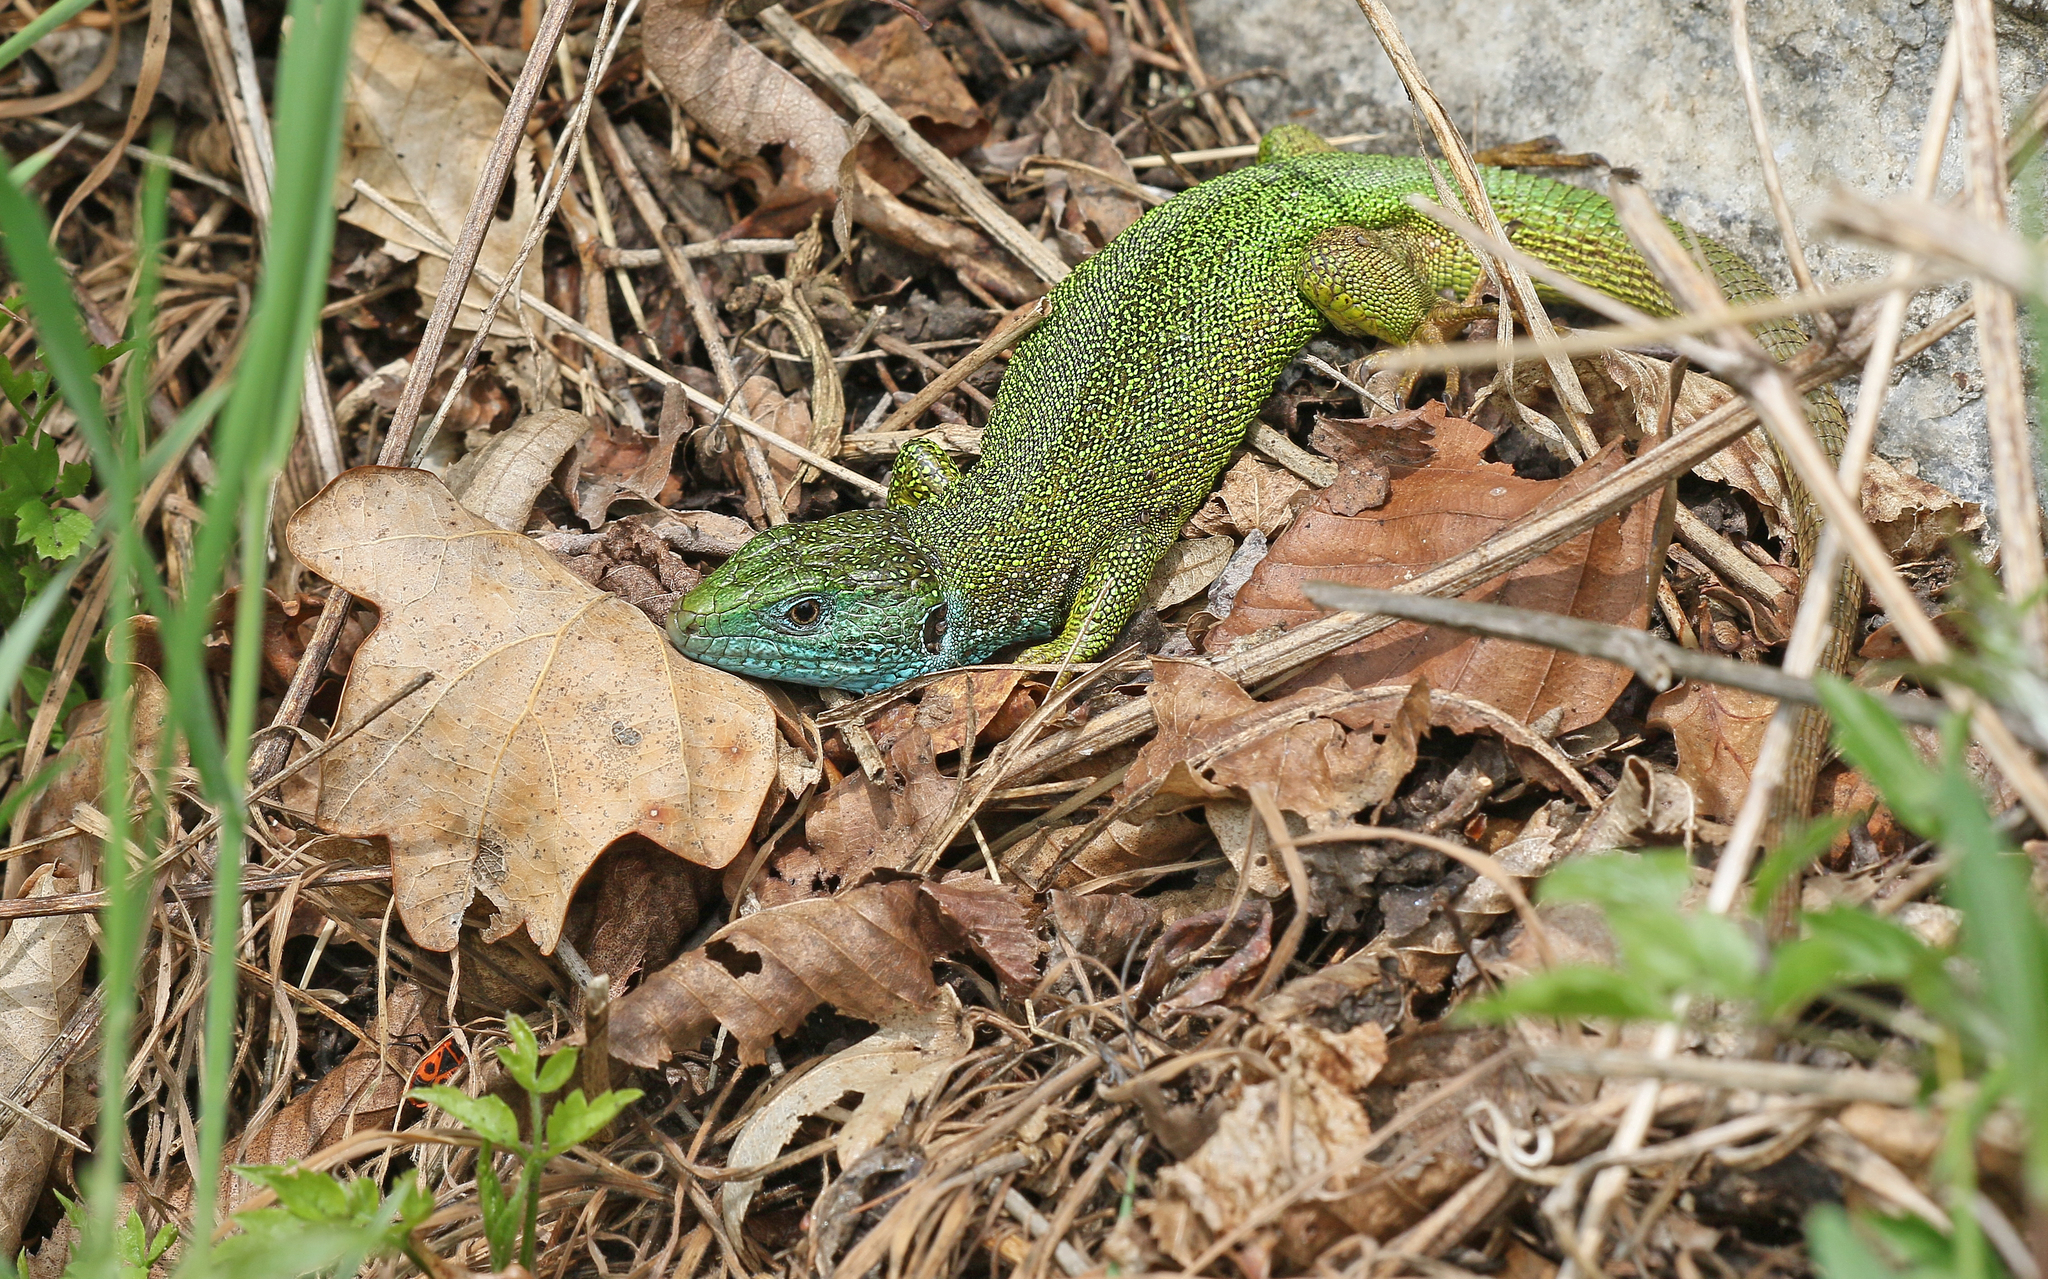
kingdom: Animalia
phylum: Chordata
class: Squamata
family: Lacertidae
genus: Lacerta
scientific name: Lacerta viridis
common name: European green lizard
